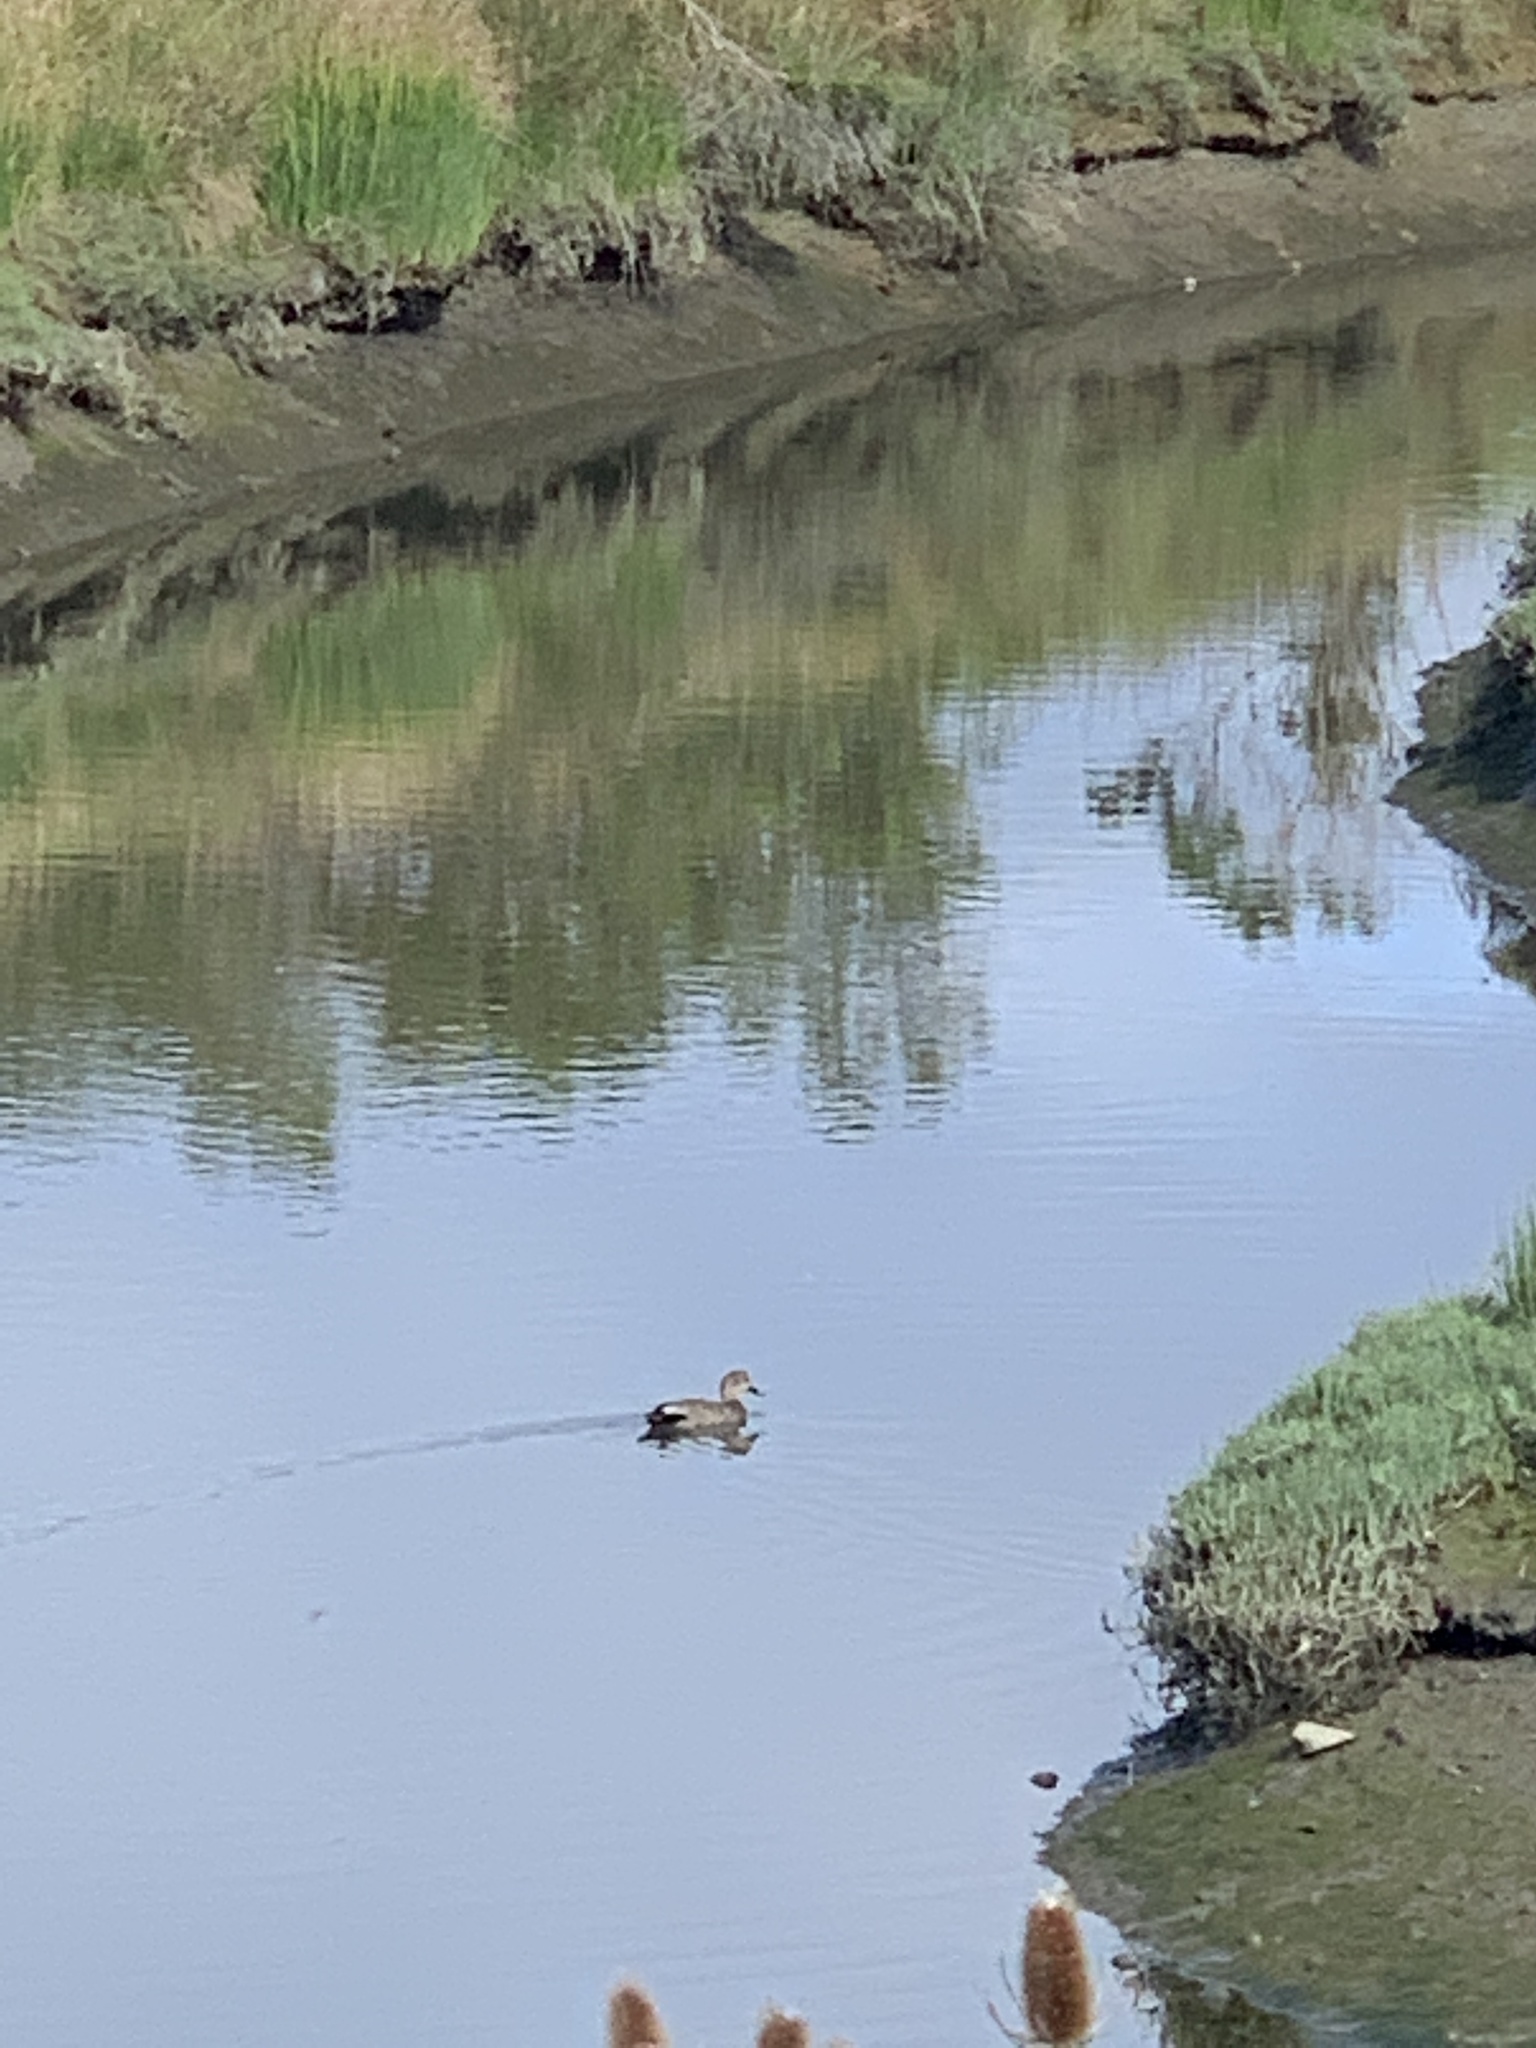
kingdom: Animalia
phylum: Chordata
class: Aves
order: Anseriformes
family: Anatidae
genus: Mareca
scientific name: Mareca strepera
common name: Gadwall
